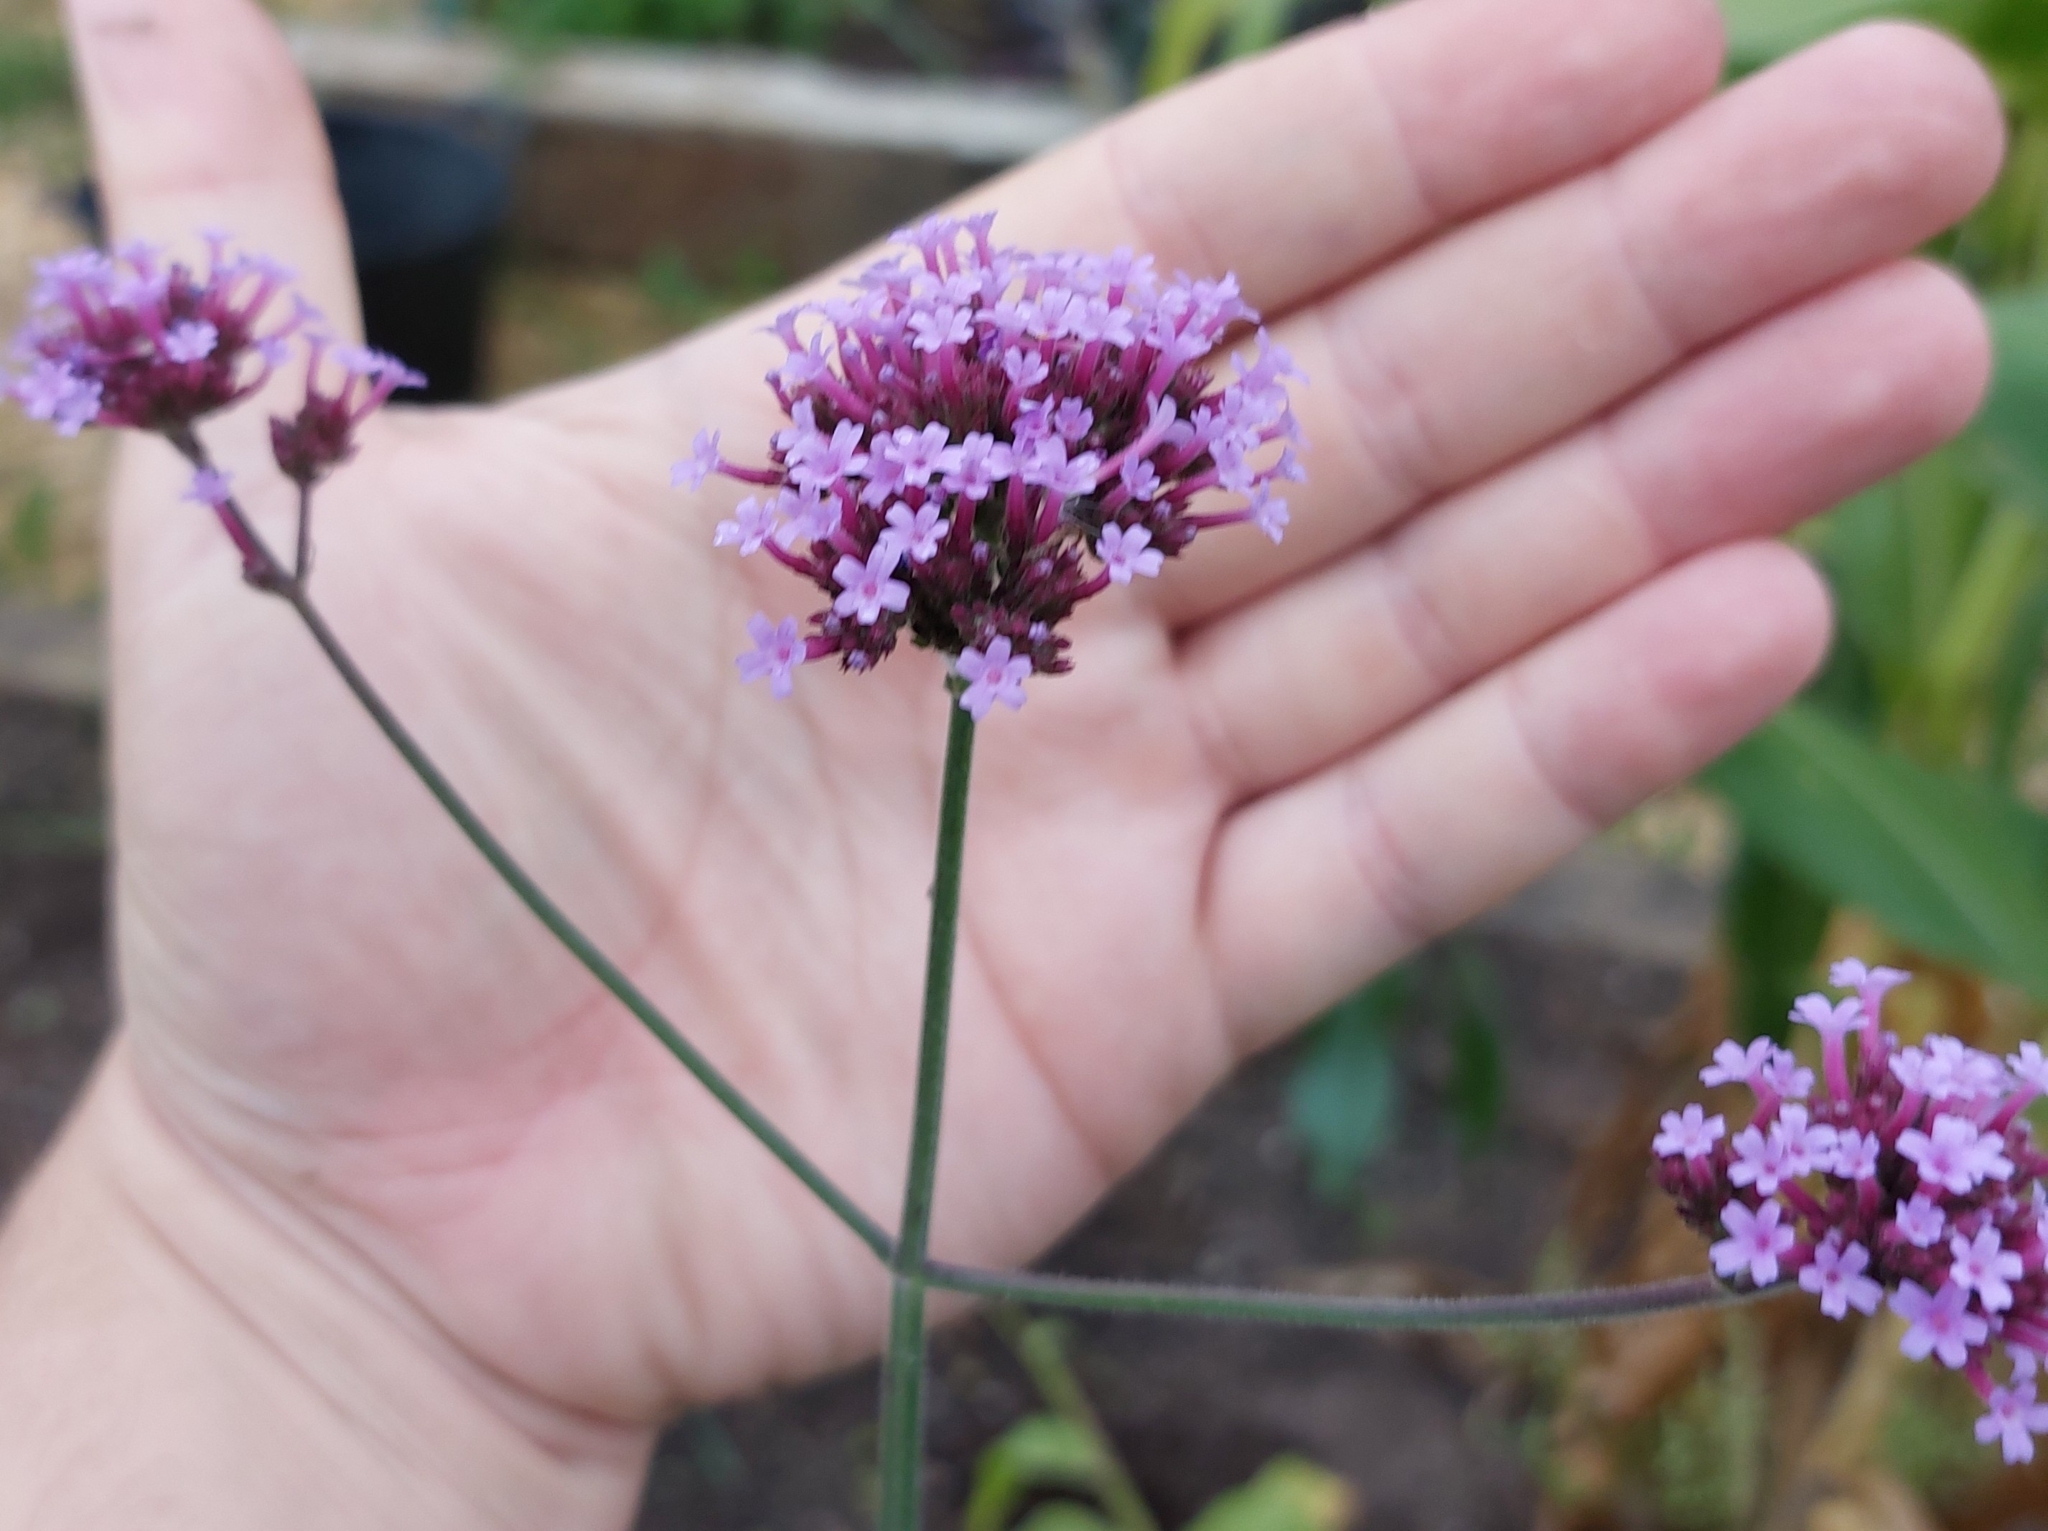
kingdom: Plantae
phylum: Tracheophyta
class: Magnoliopsida
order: Lamiales
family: Verbenaceae
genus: Verbena
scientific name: Verbena bonariensis
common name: Purpletop vervain
